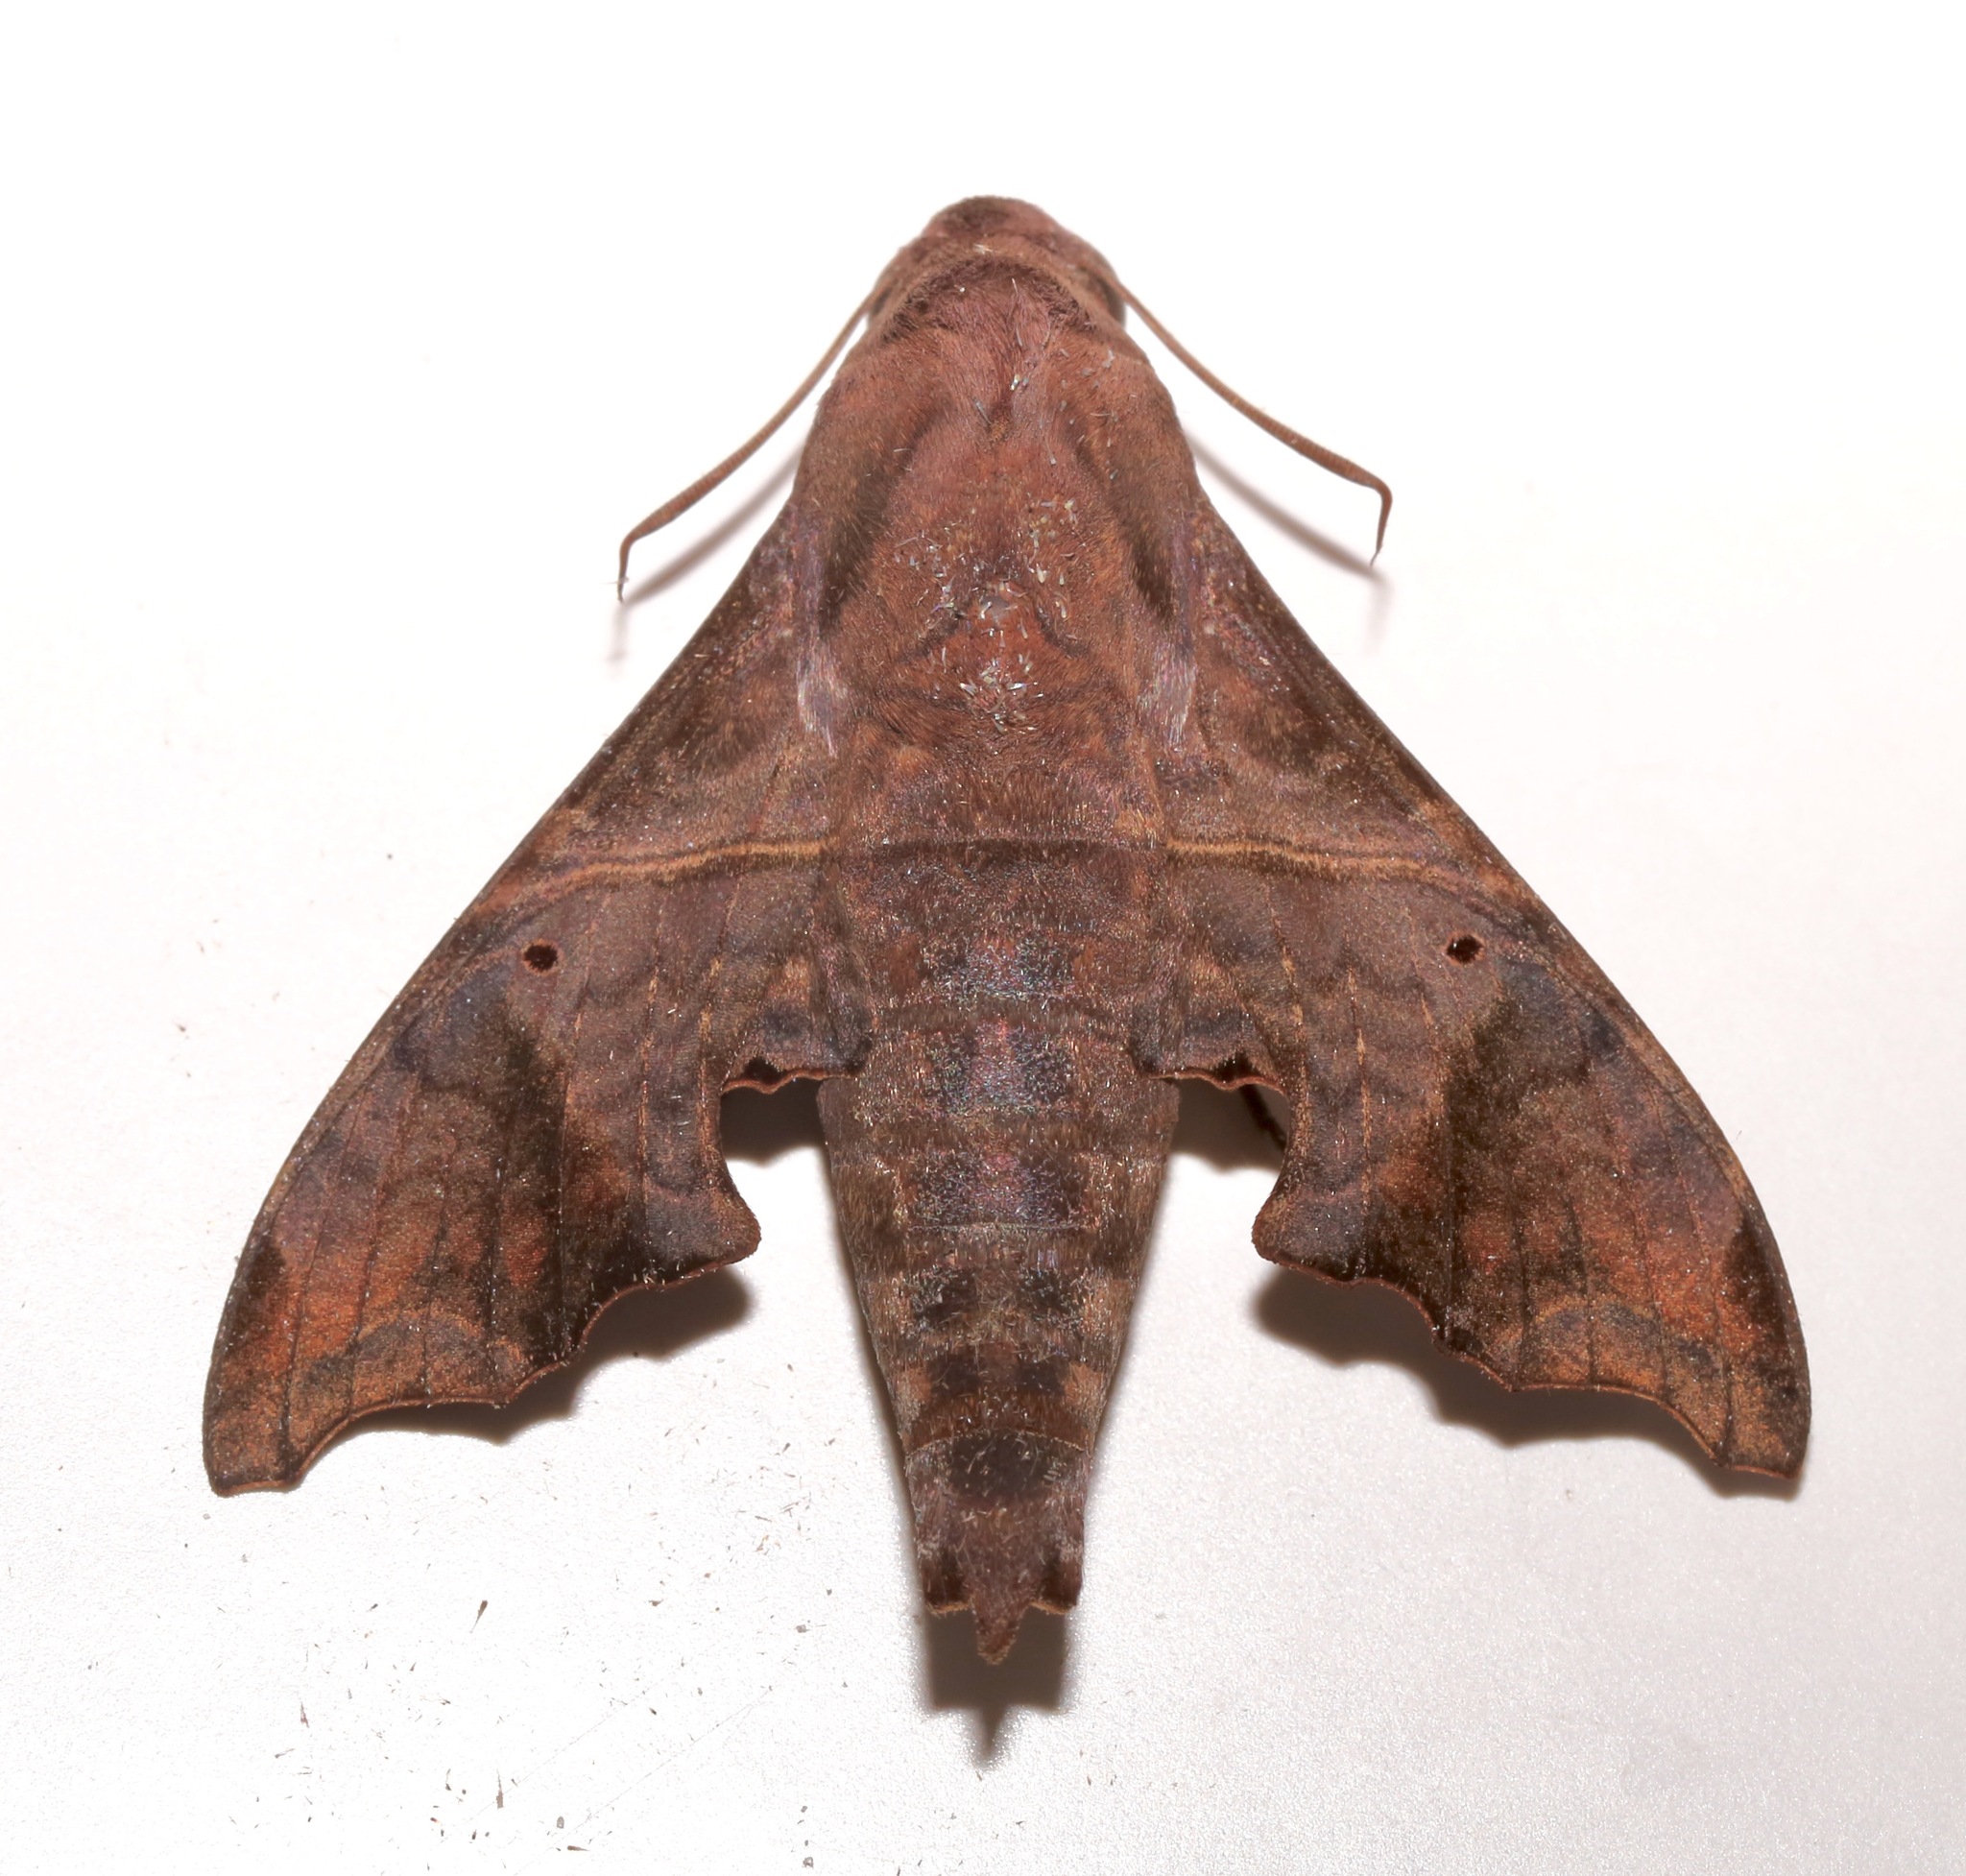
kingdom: Animalia
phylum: Arthropoda
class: Insecta
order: Lepidoptera
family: Sphingidae
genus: Enyo
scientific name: Enyo lugubris
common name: Mournful sphinx
